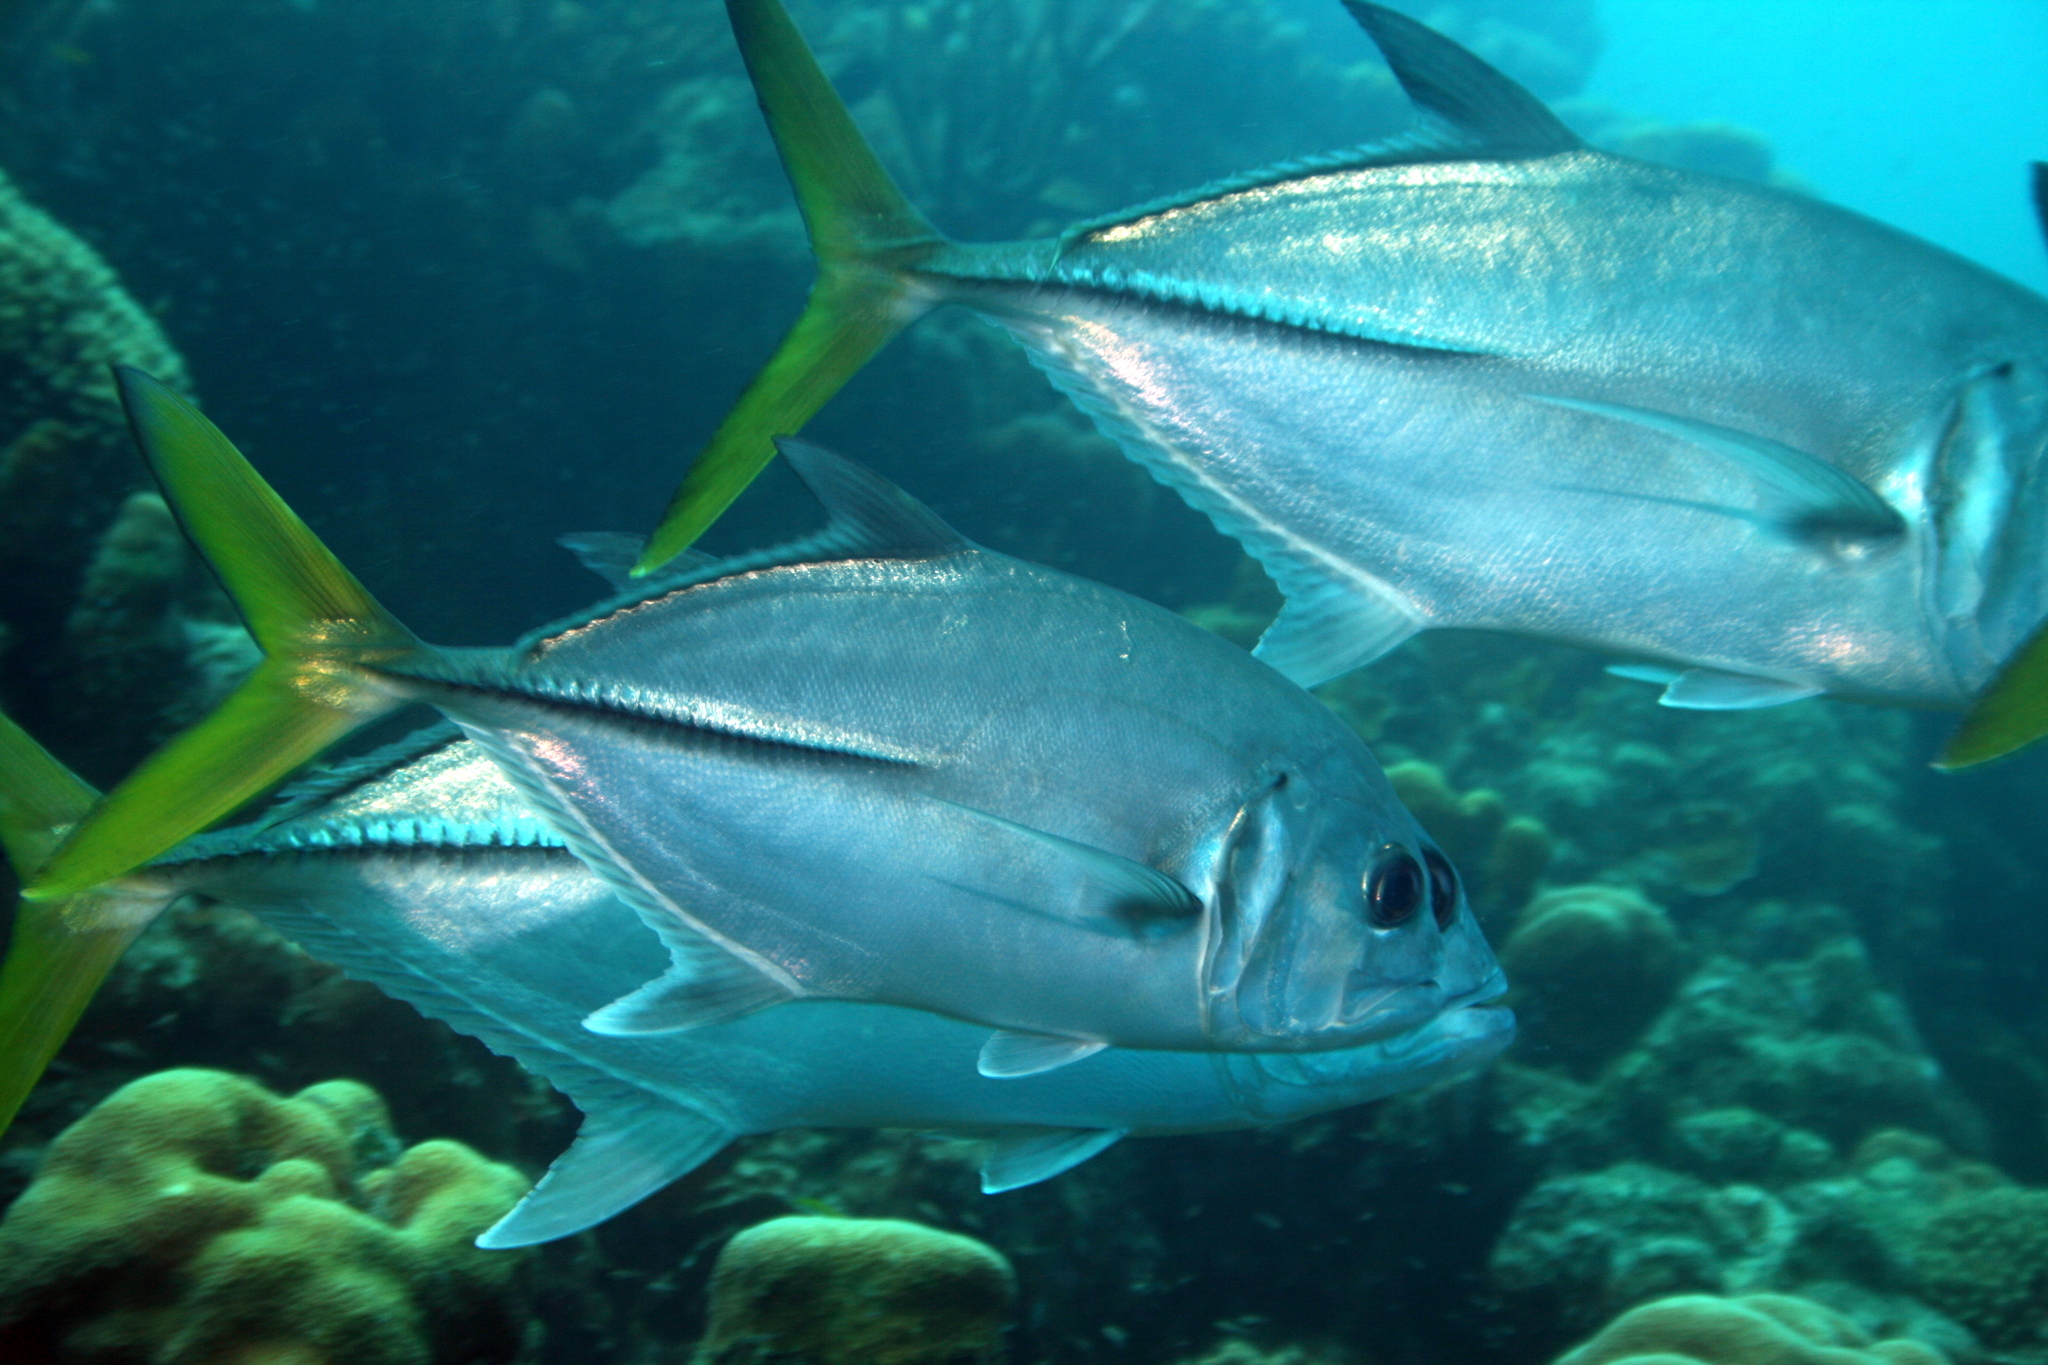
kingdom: Animalia
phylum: Chordata
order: Perciformes
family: Carangidae
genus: Caranx
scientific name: Caranx latus
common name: Horse eye jack
